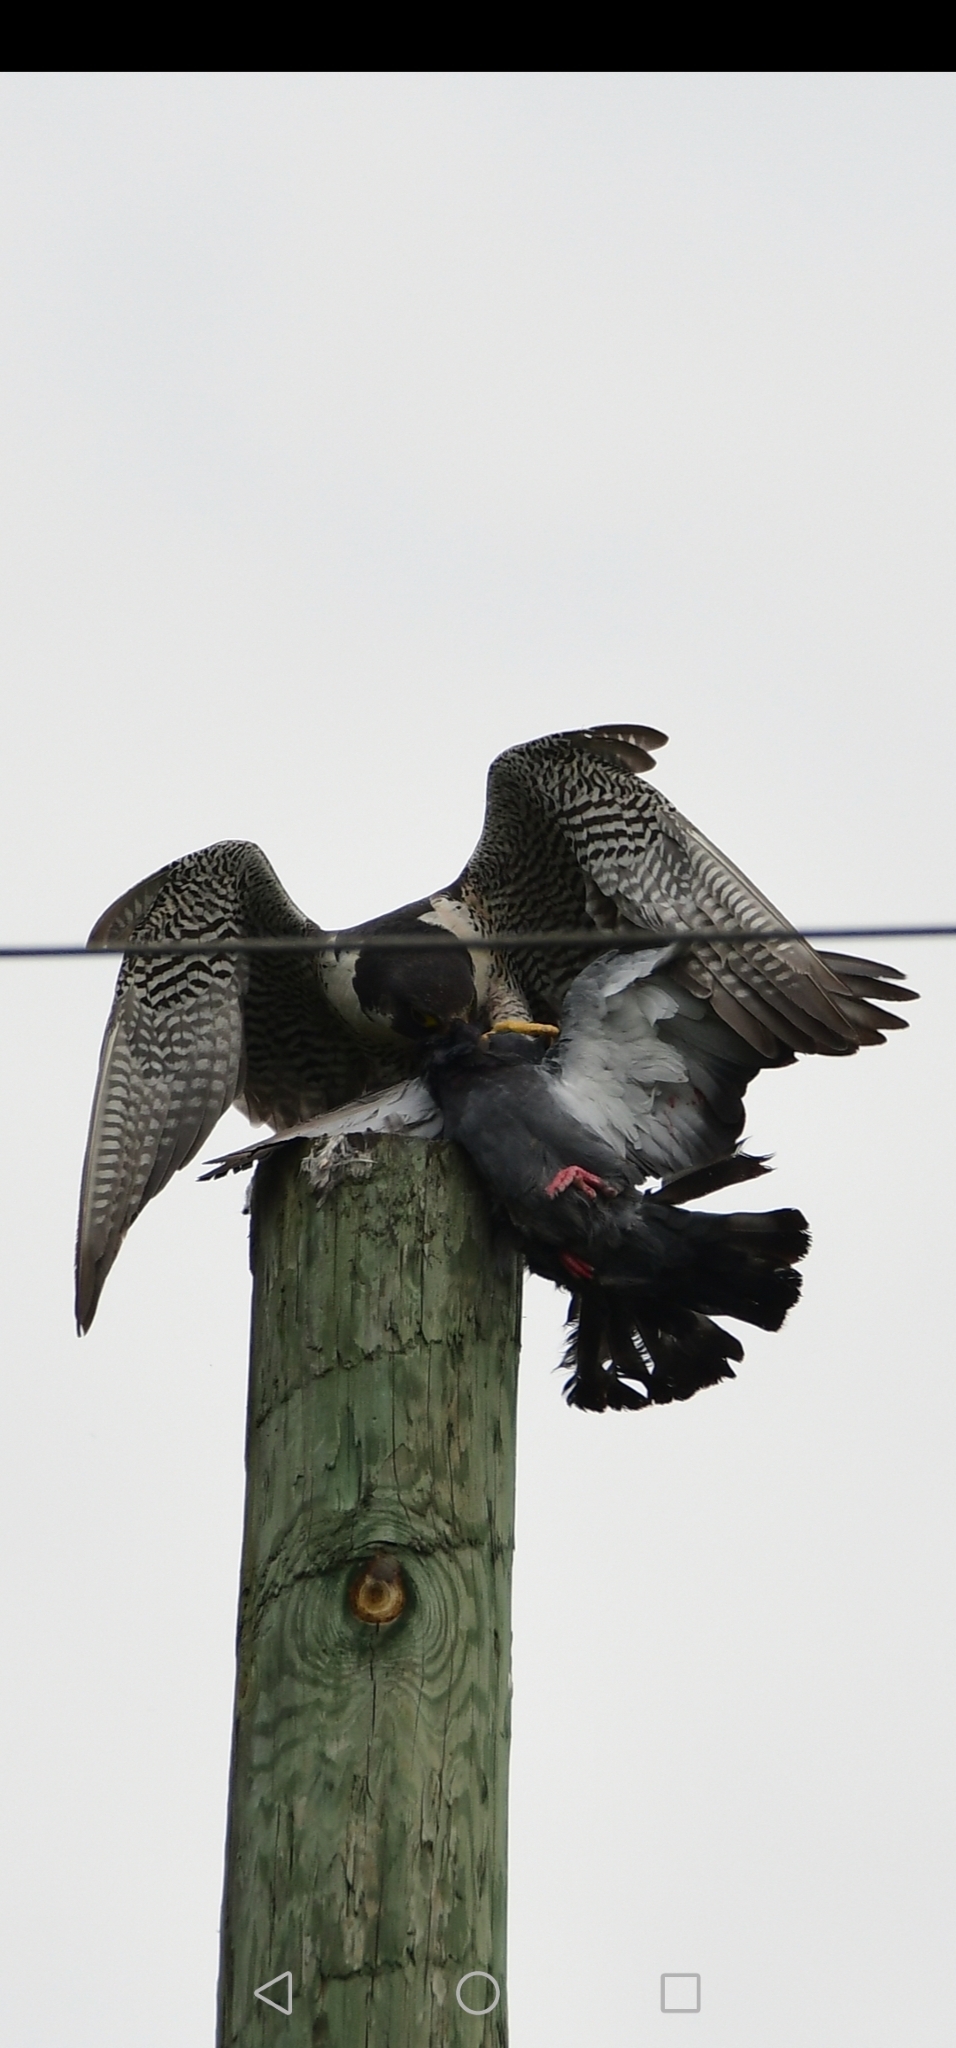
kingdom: Animalia
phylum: Chordata
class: Aves
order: Falconiformes
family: Falconidae
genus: Falco
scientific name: Falco peregrinus
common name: Peregrine falcon
